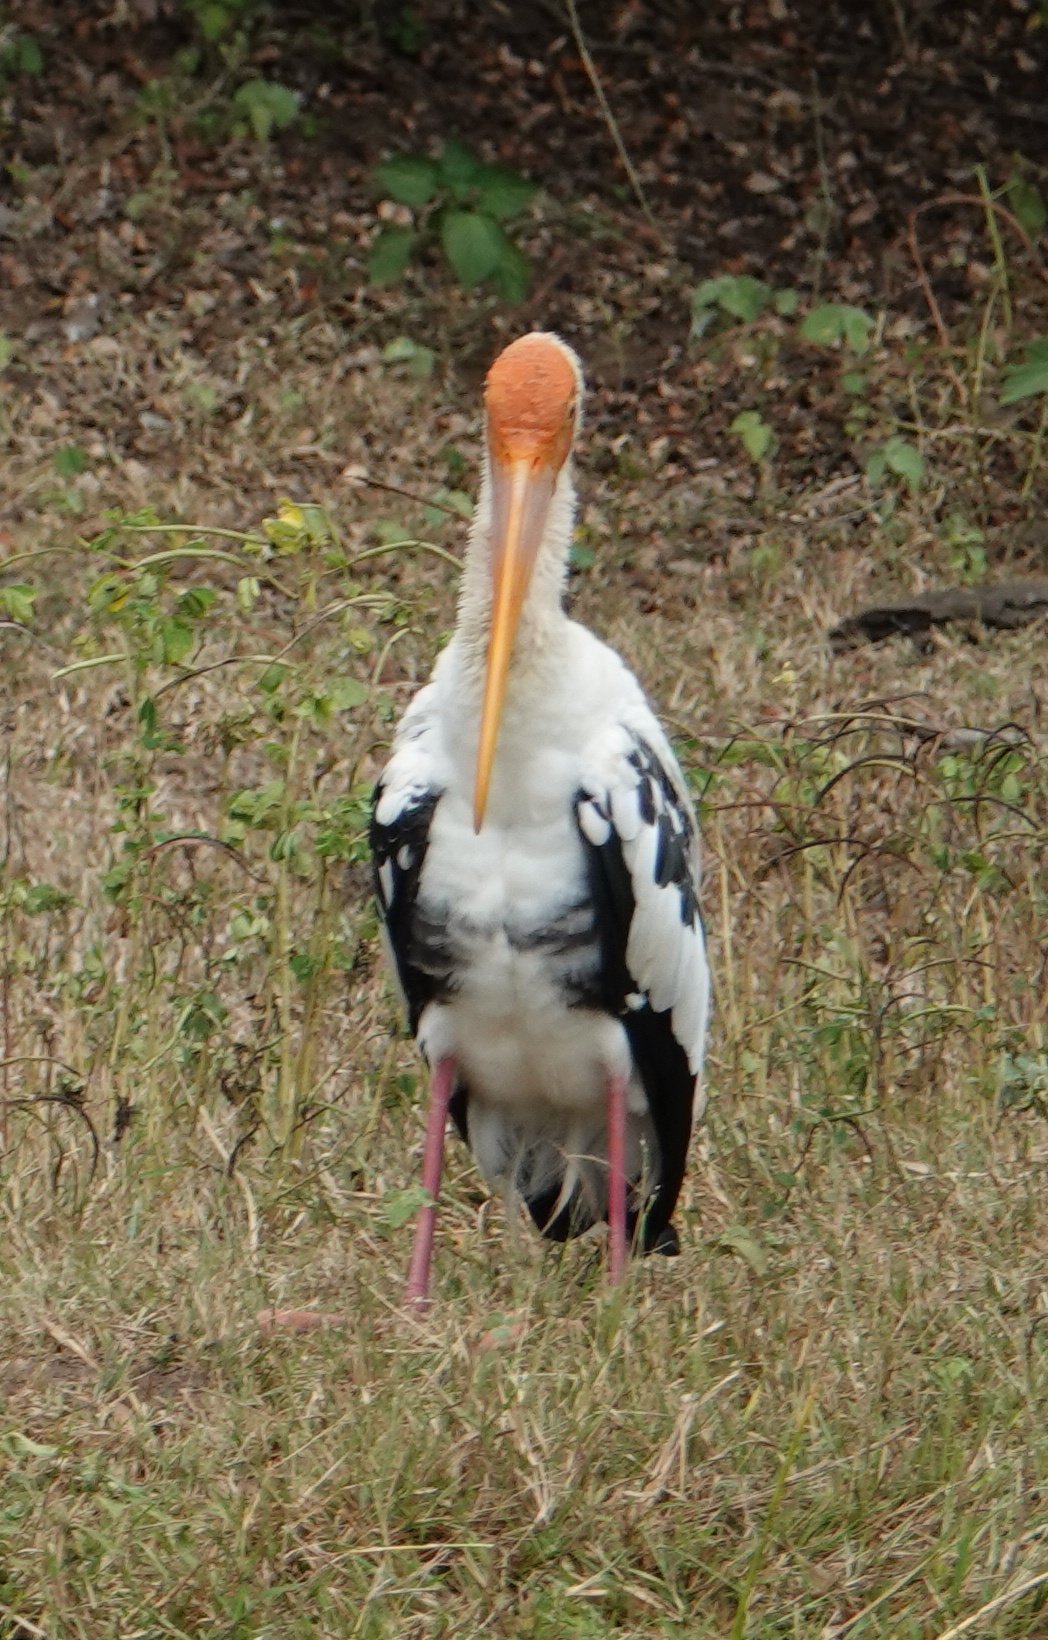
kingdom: Animalia
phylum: Chordata
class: Aves
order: Ciconiiformes
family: Ciconiidae
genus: Mycteria
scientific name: Mycteria leucocephala
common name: Painted stork
